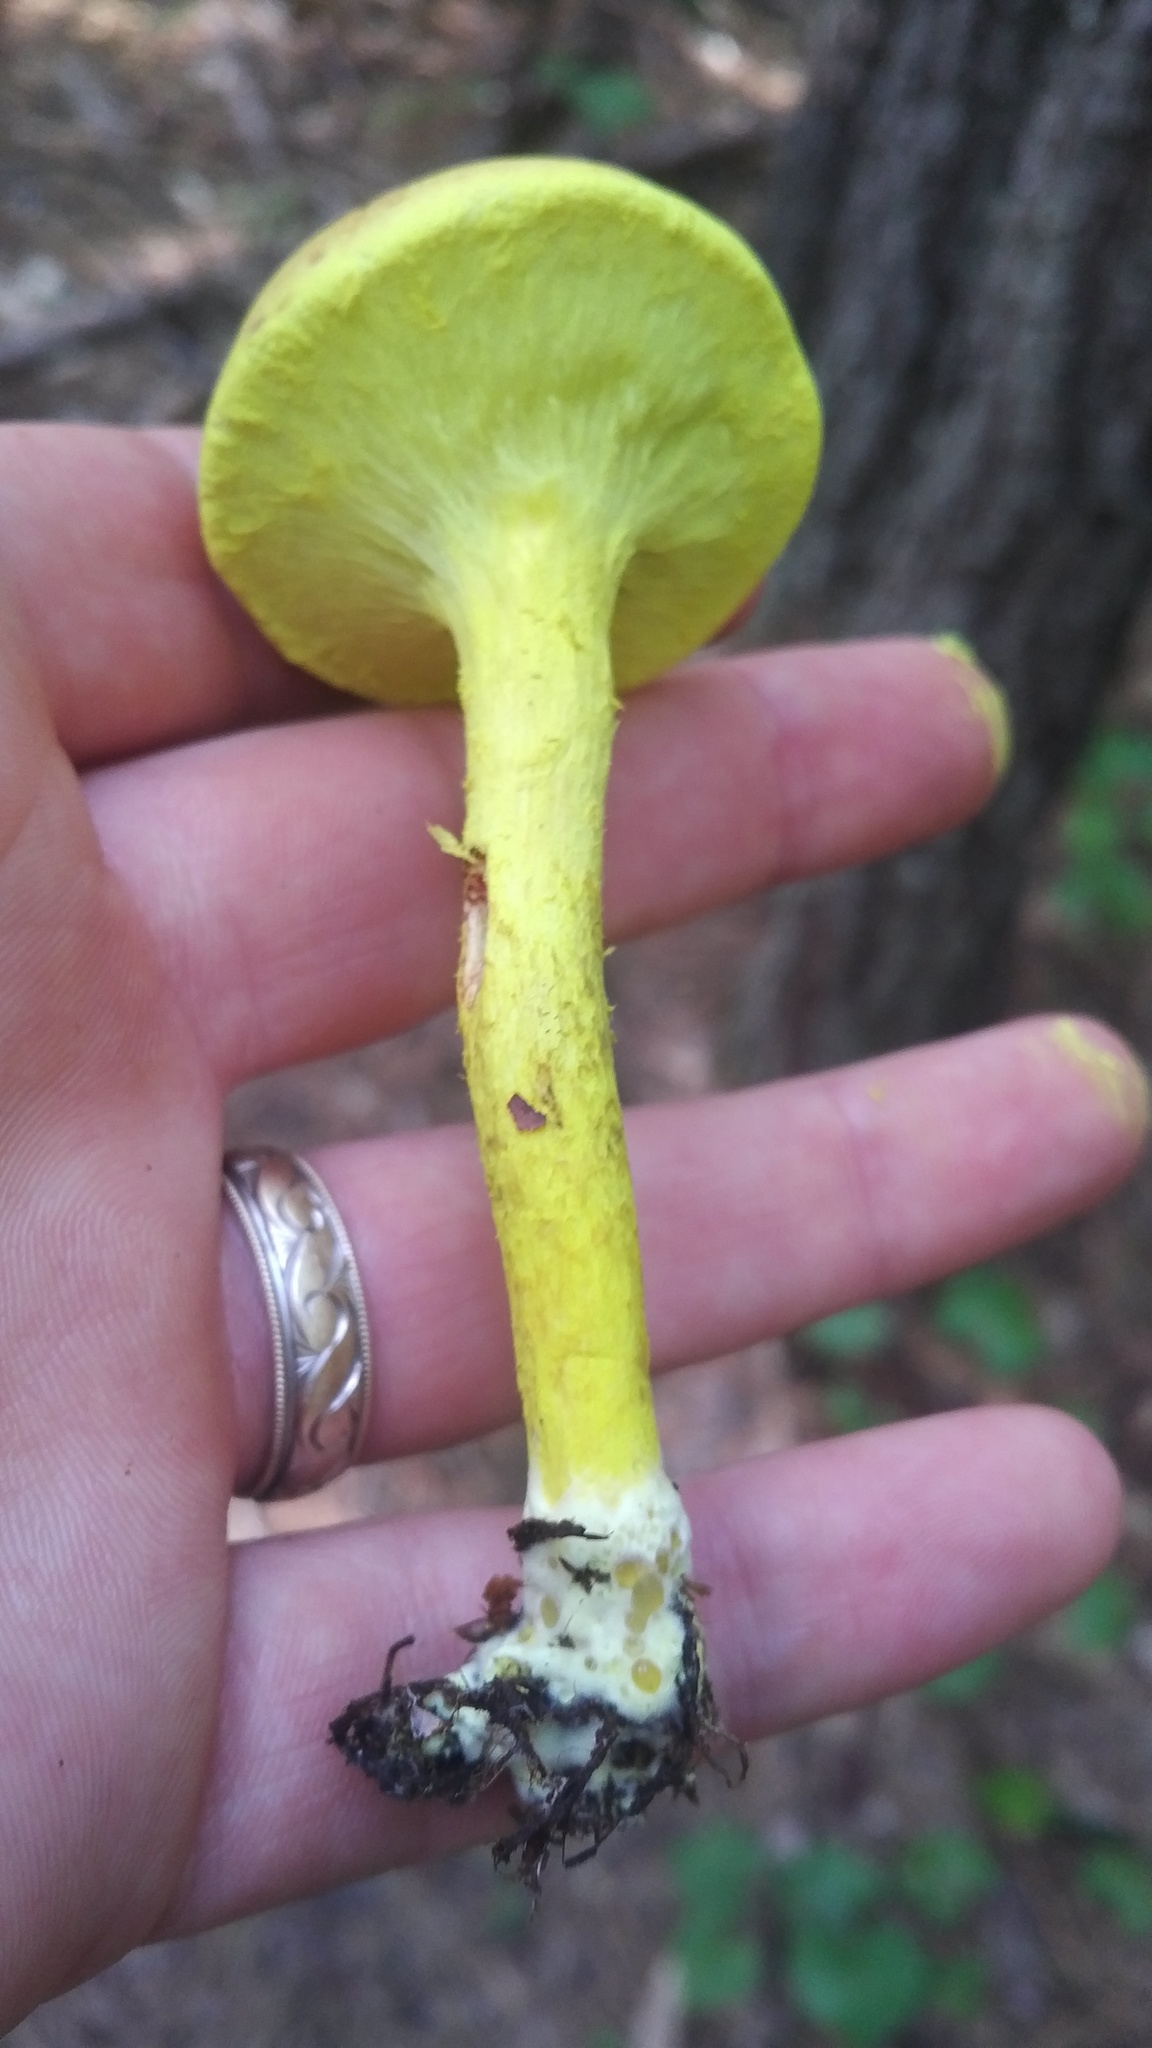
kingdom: Fungi
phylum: Basidiomycota
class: Agaricomycetes
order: Boletales
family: Boletaceae
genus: Pulveroboletus
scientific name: Pulveroboletus ravenelii
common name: Powdery sulfur bolete
